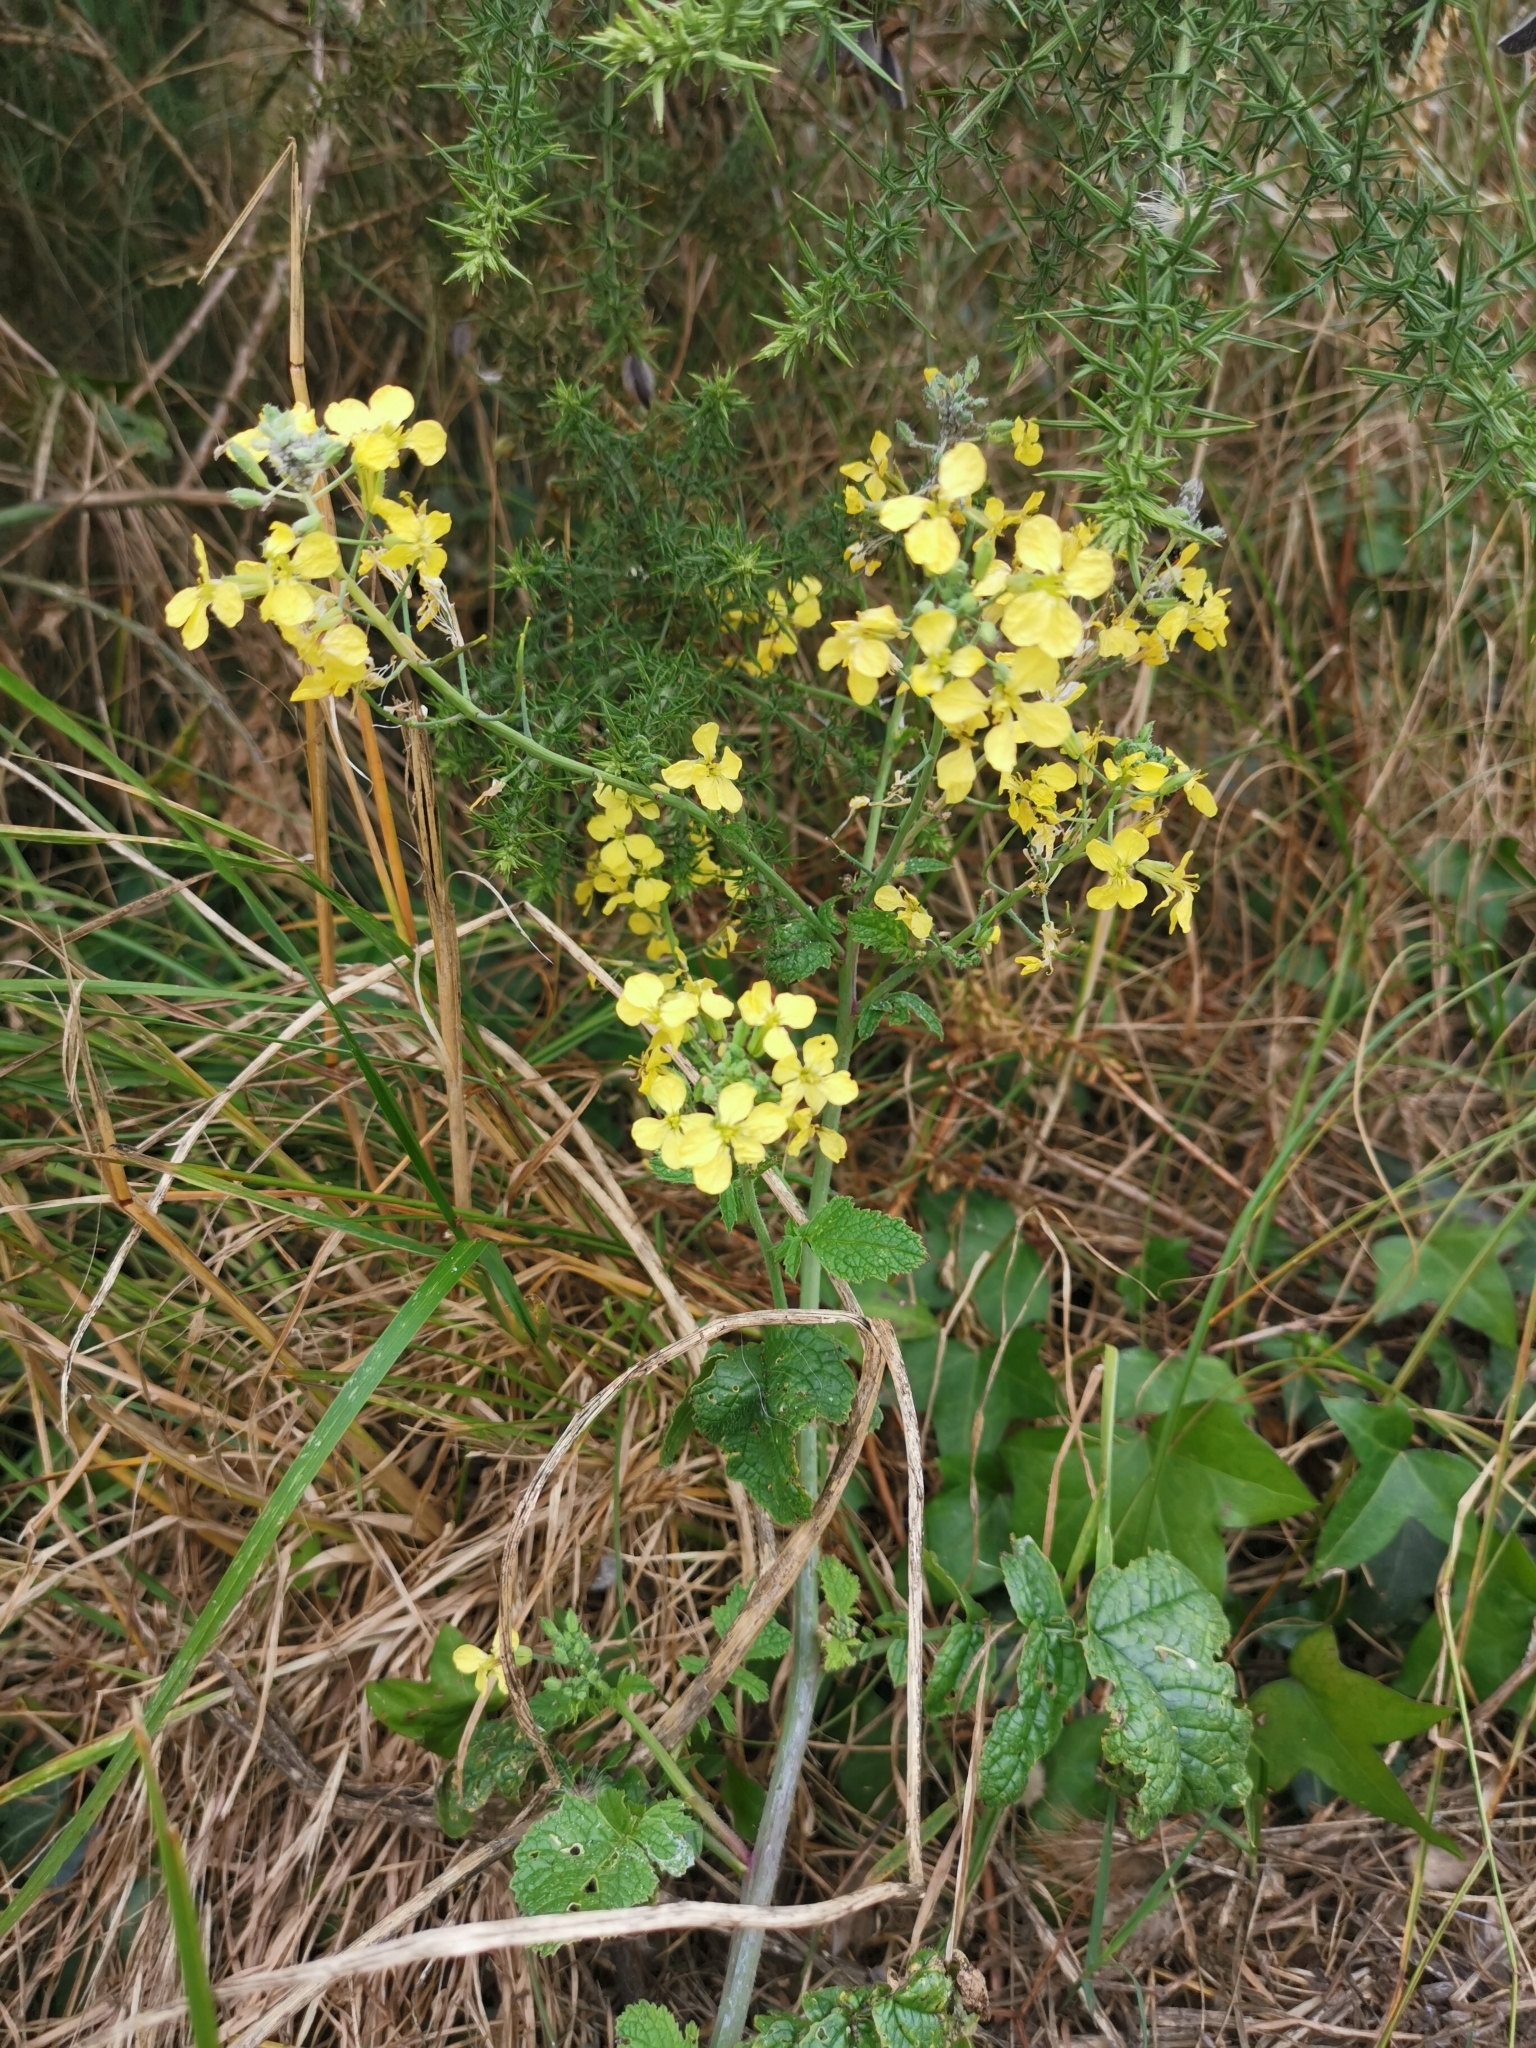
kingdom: Plantae
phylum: Tracheophyta
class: Magnoliopsida
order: Brassicales
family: Brassicaceae
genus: Raphanus
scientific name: Raphanus raphanistrum
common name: Wild radish
